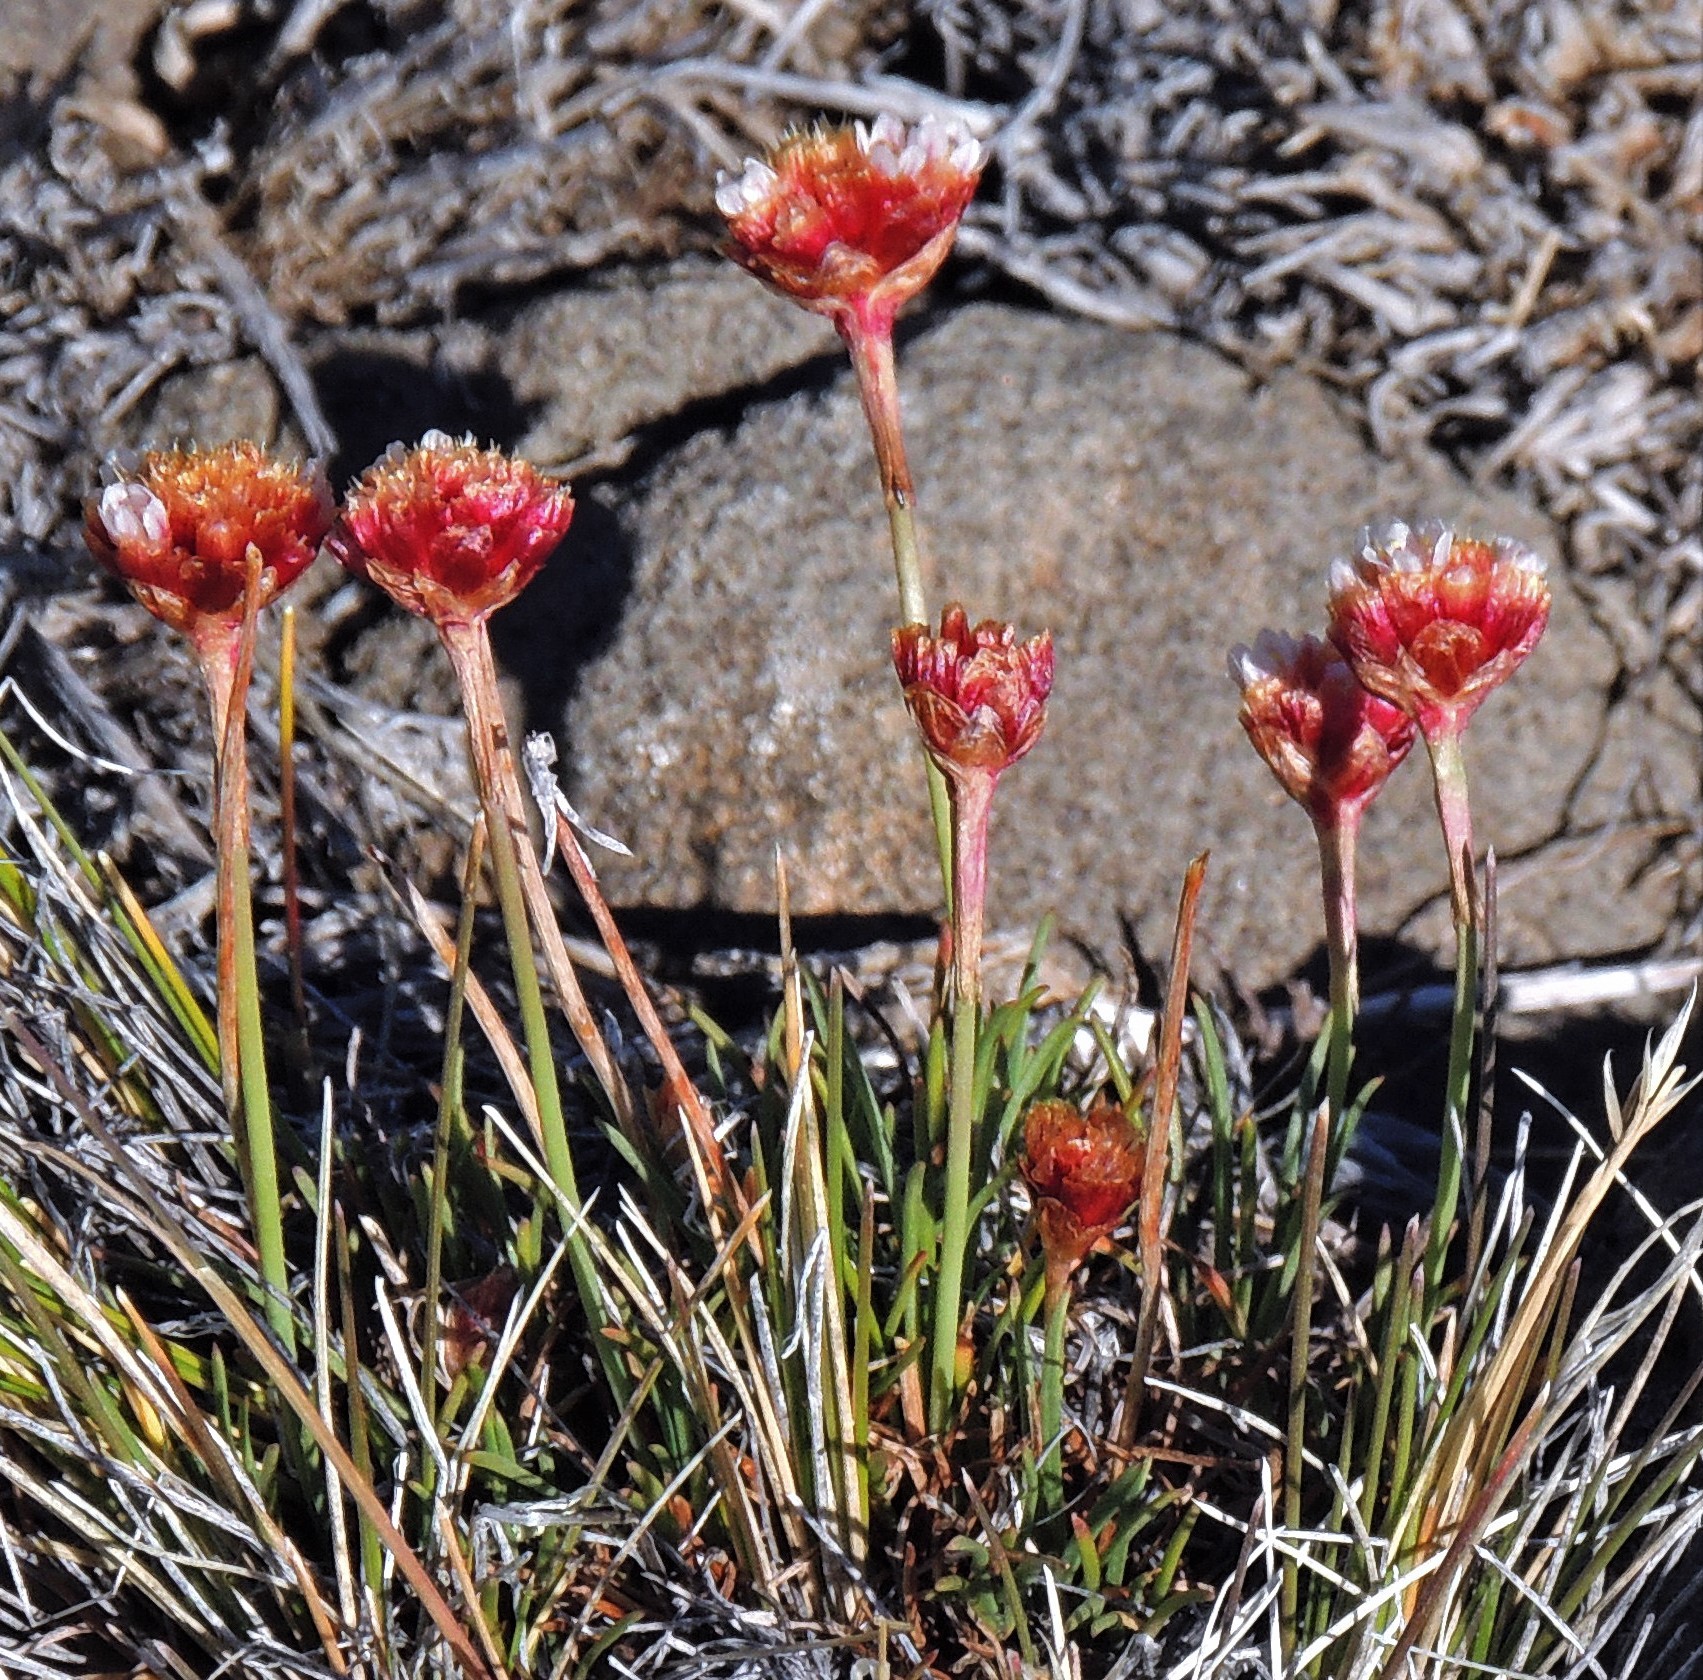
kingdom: Plantae
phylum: Tracheophyta
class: Magnoliopsida
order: Caryophyllales
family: Plumbaginaceae
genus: Armeria
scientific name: Armeria curvifolia
